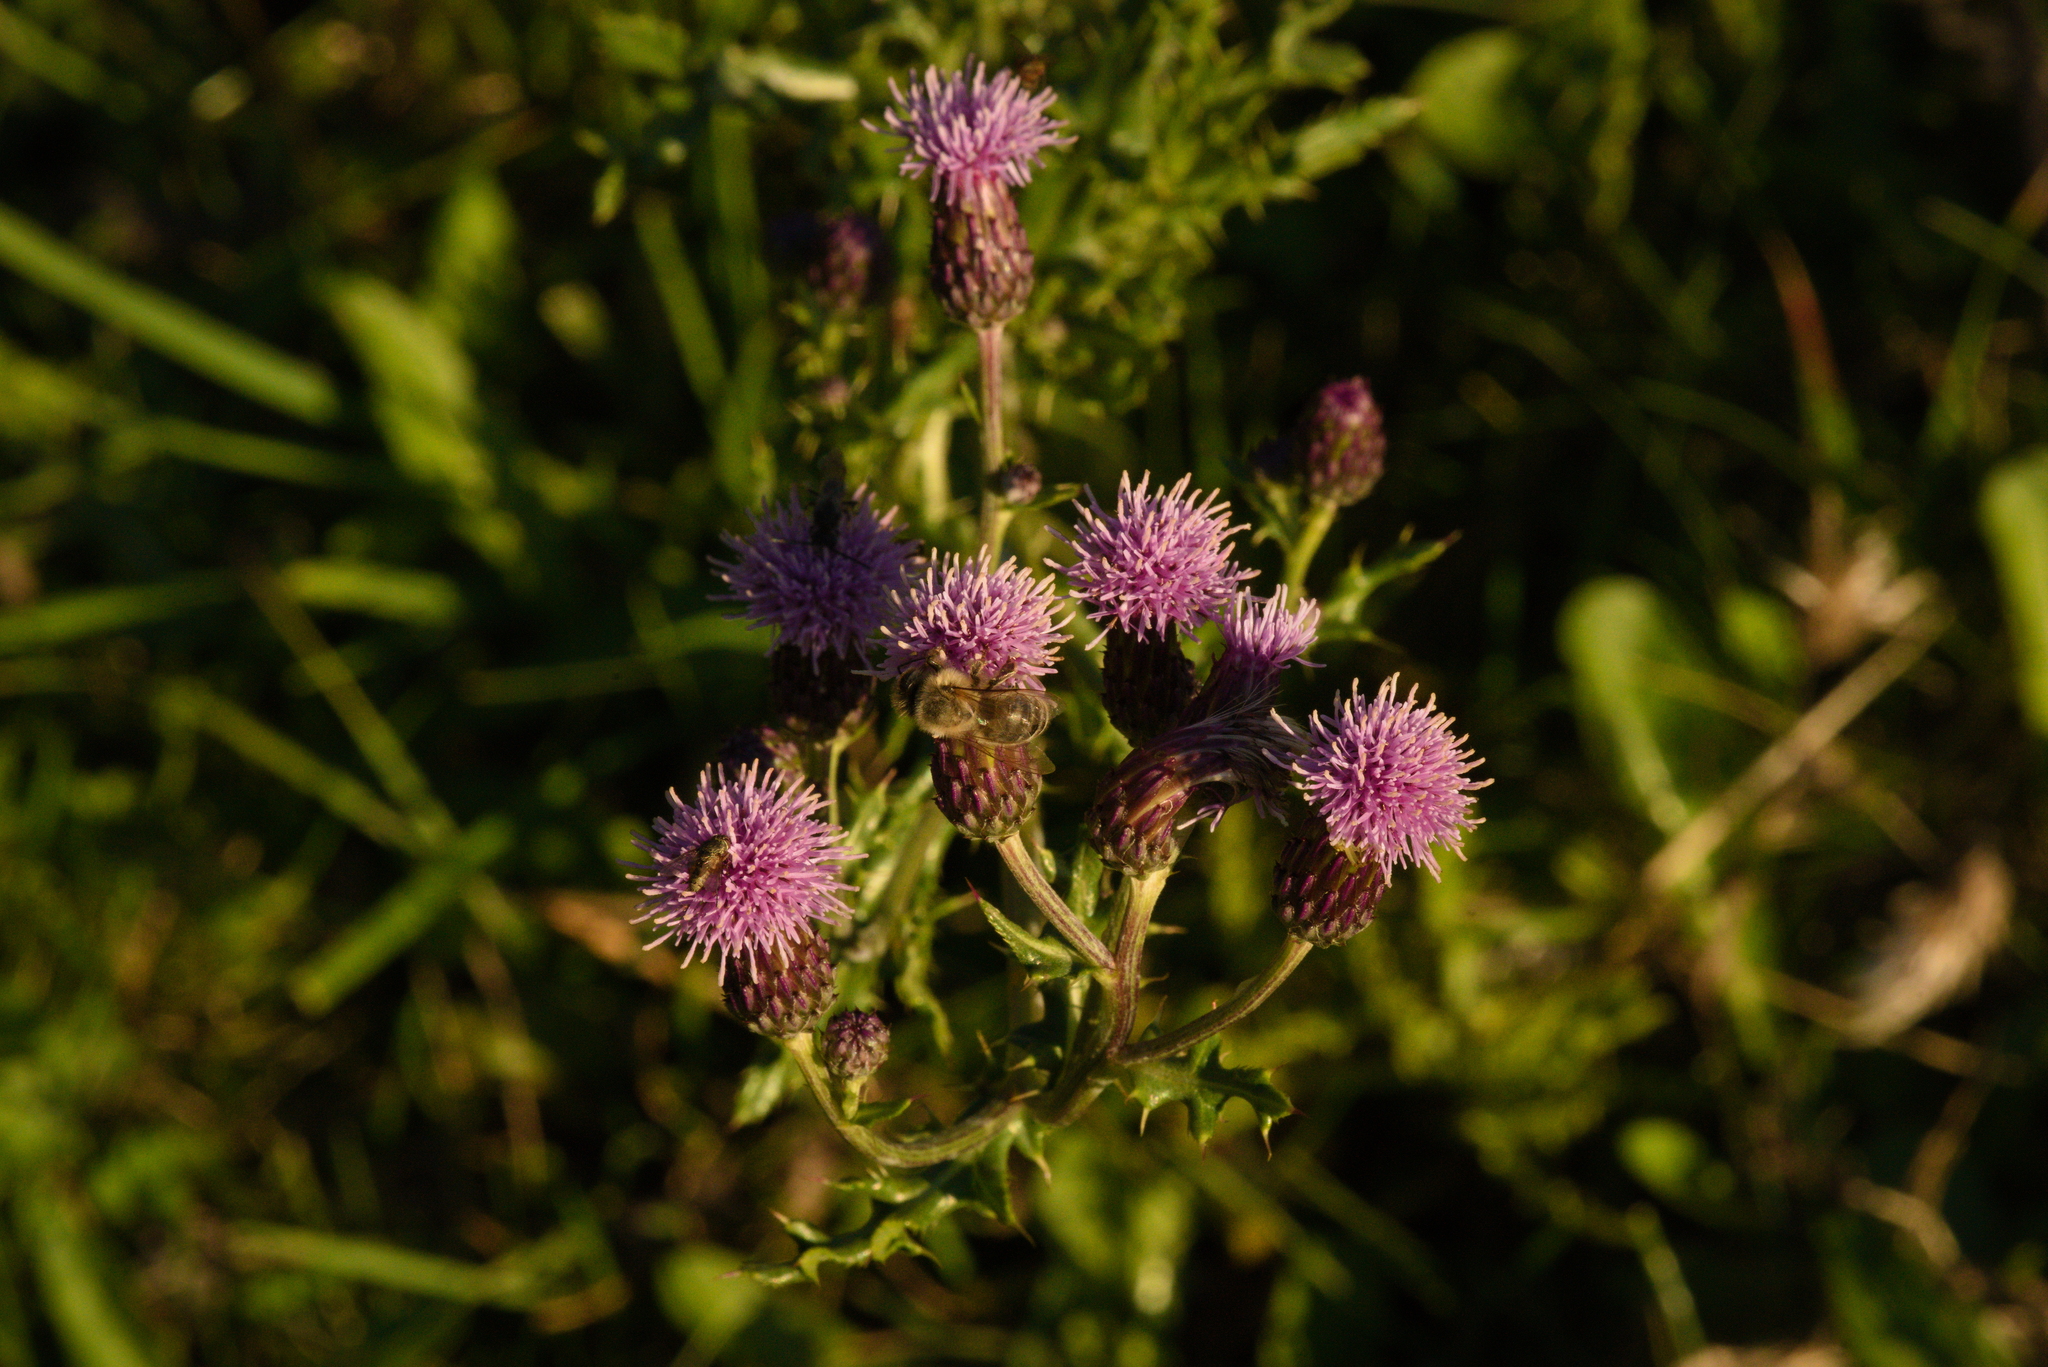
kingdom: Plantae
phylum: Tracheophyta
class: Magnoliopsida
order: Asterales
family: Asteraceae
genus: Cirsium
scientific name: Cirsium arvense
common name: Creeping thistle
